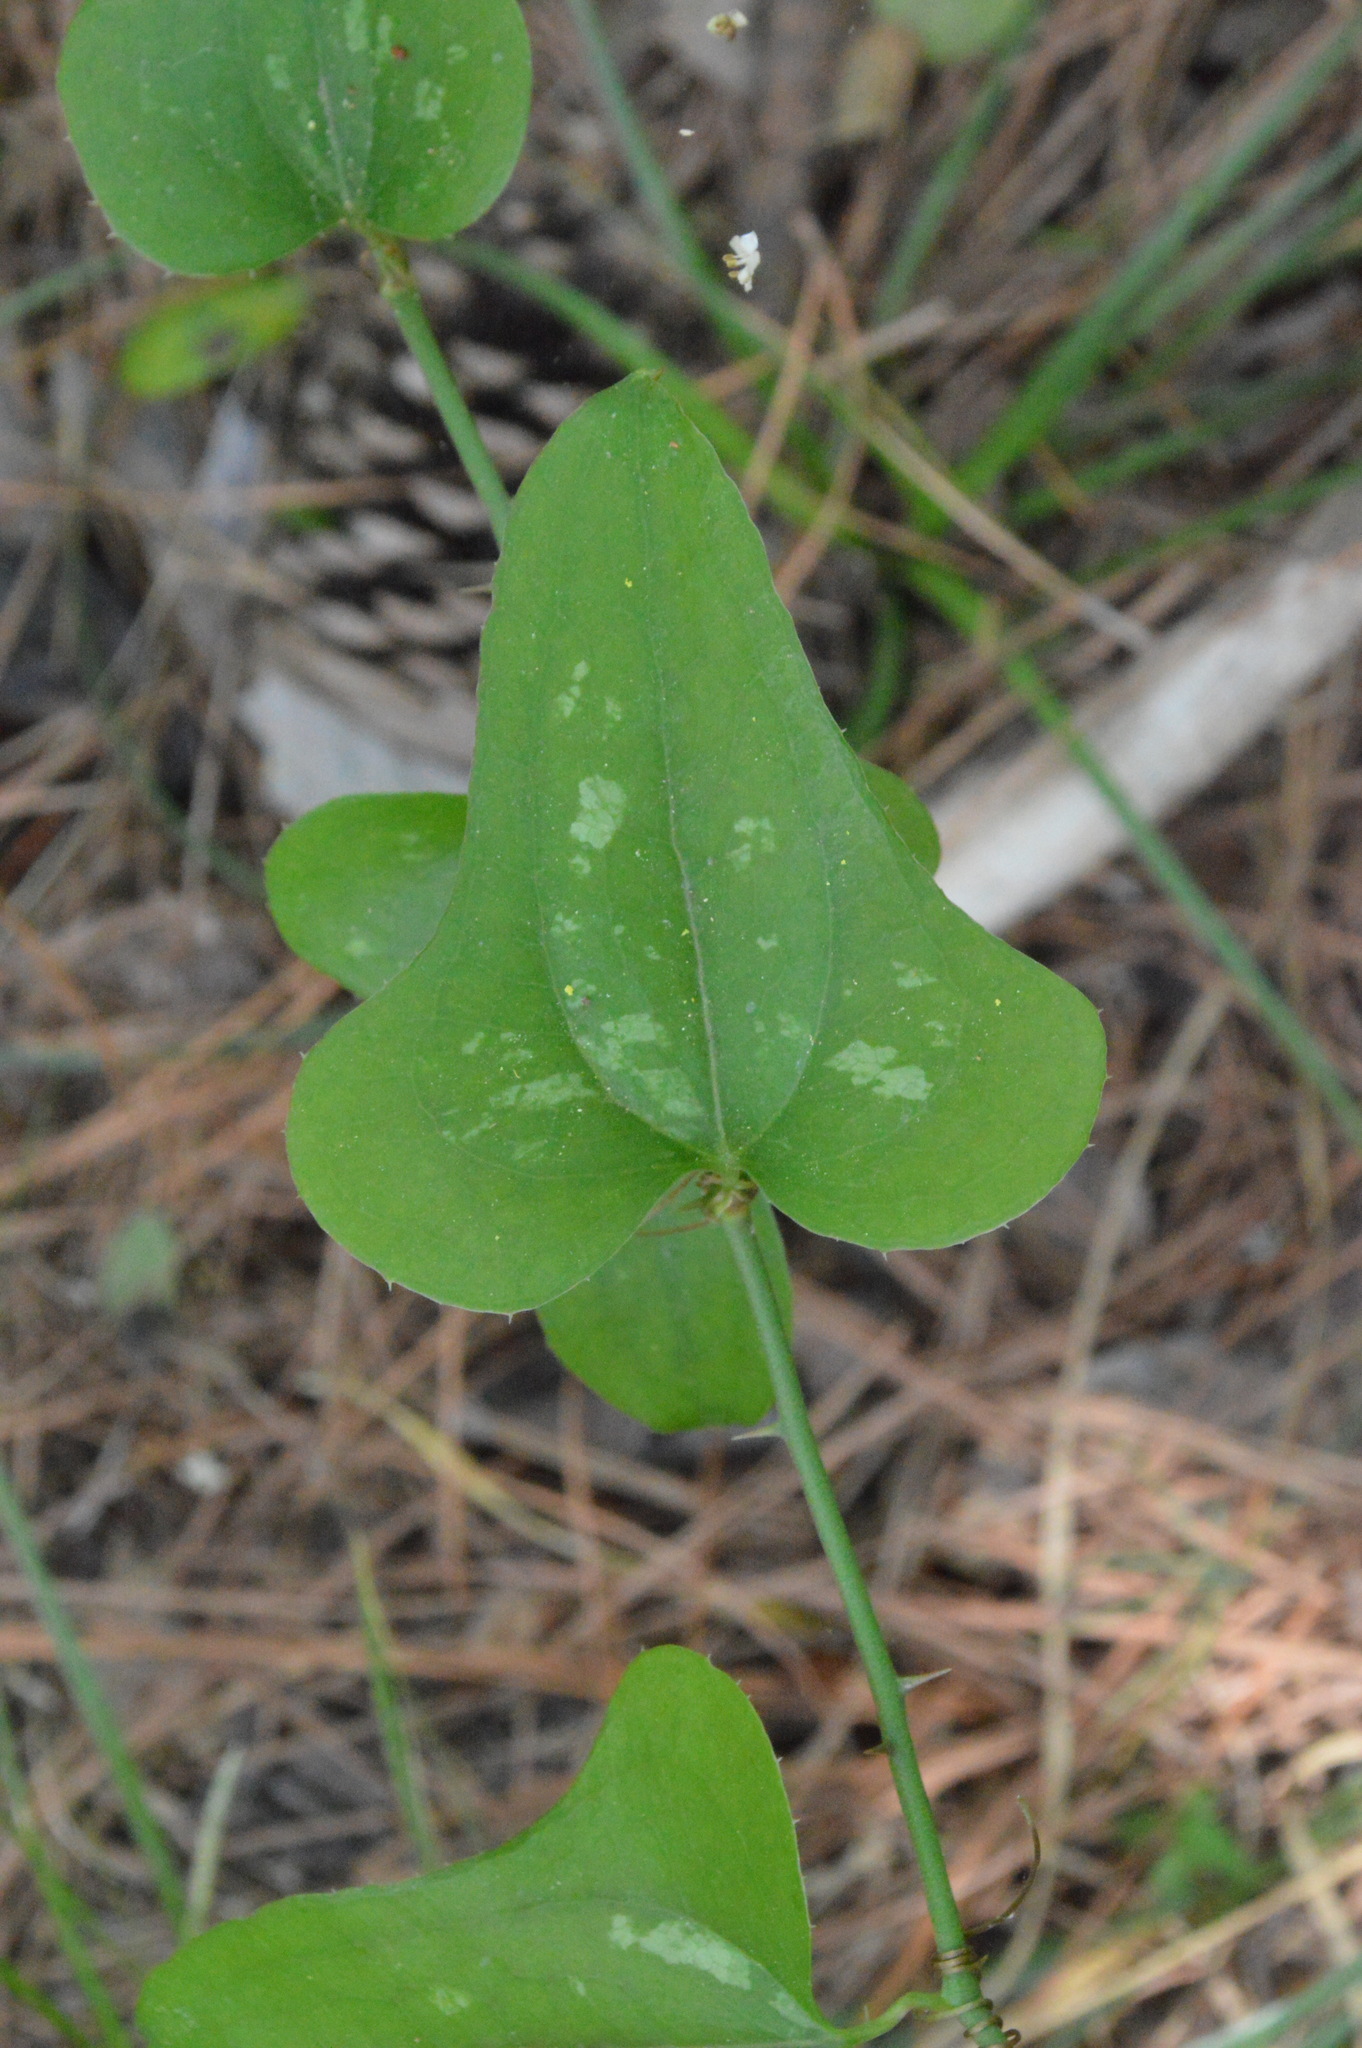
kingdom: Plantae
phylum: Tracheophyta
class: Liliopsida
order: Liliales
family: Smilacaceae
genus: Smilax
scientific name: Smilax bona-nox
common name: Catbrier
